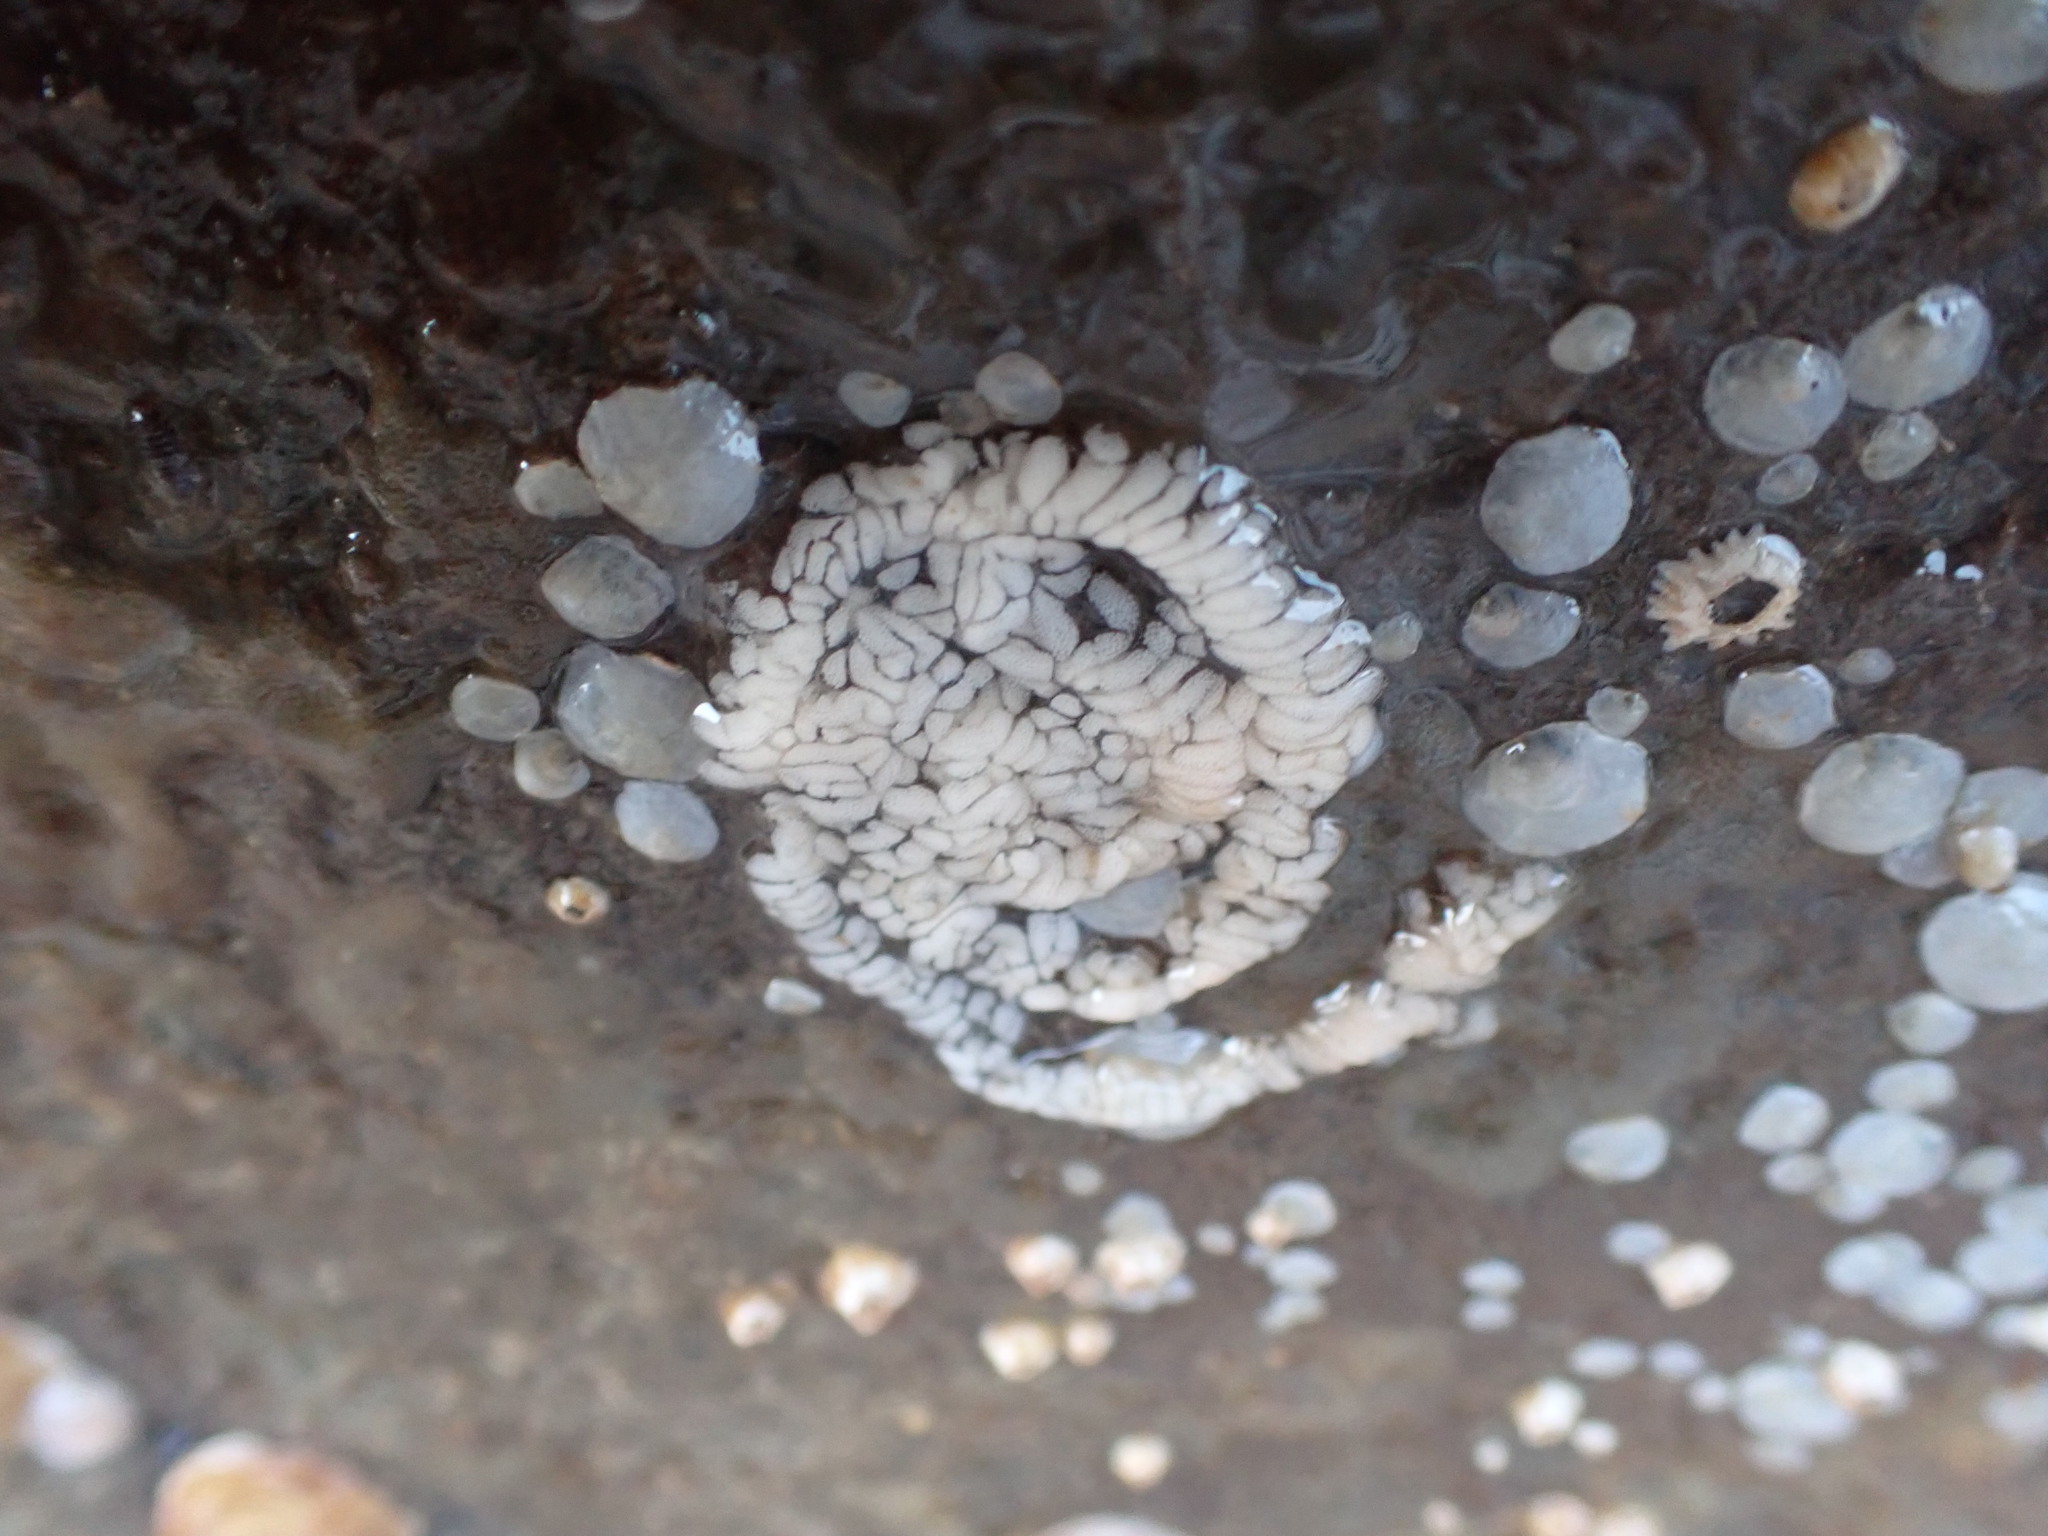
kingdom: Animalia
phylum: Mollusca
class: Gastropoda
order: Nudibranchia
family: Aeolidiidae
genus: Aeolidia
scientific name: Aeolidia papillosa
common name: Common grey sea slug
